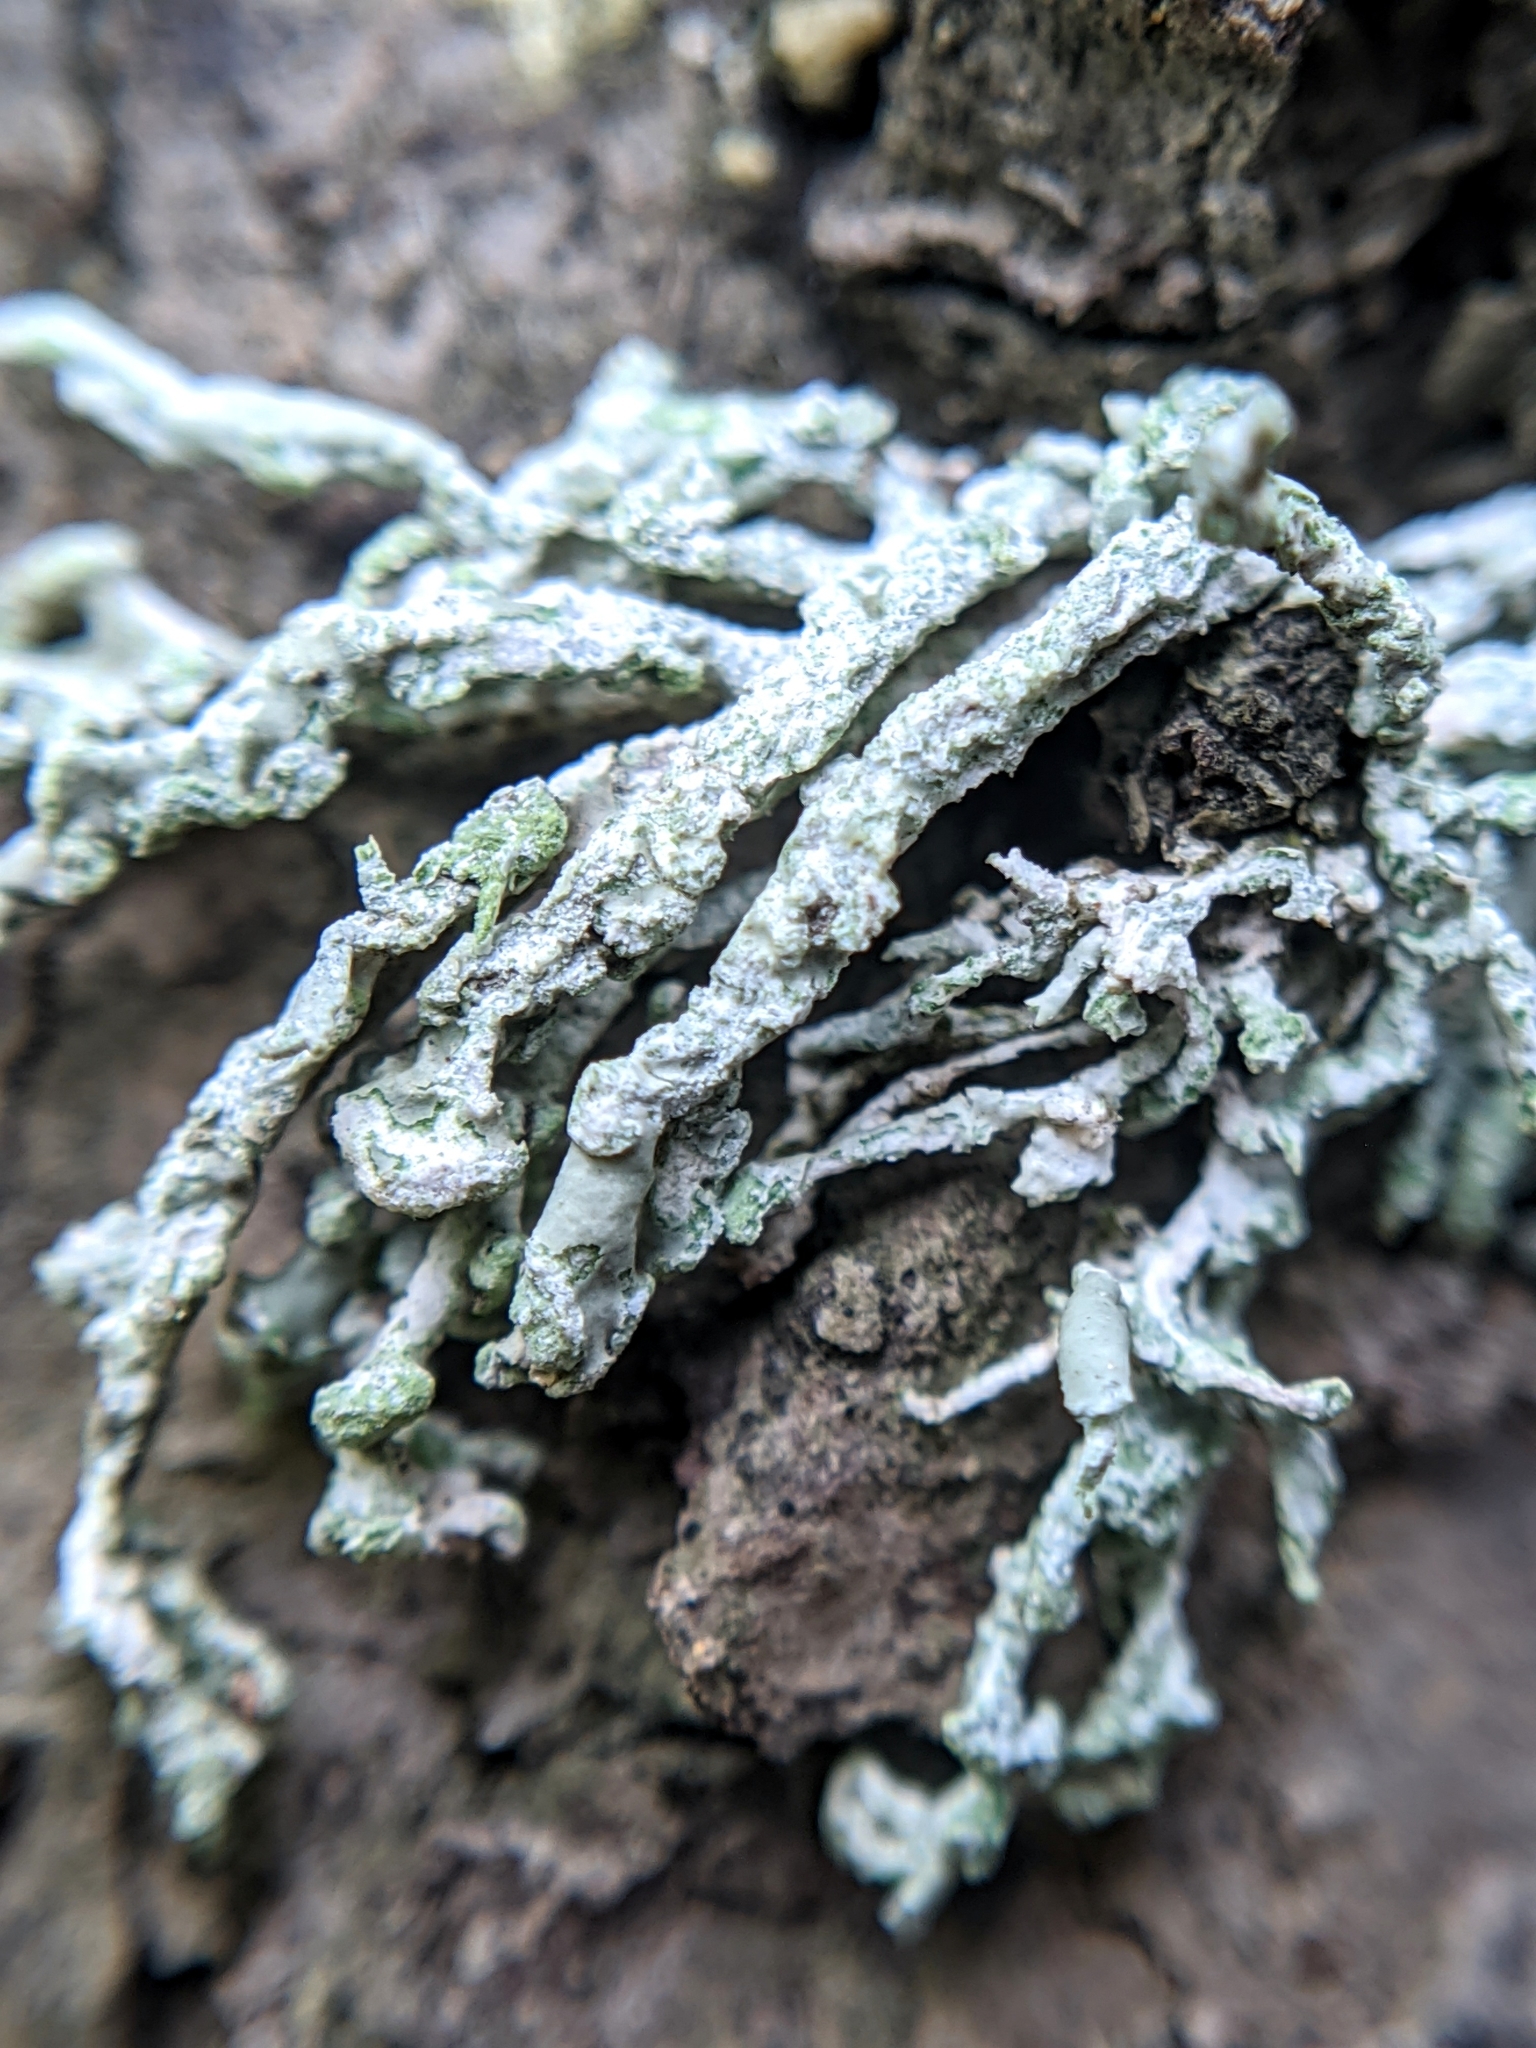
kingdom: Fungi
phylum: Ascomycota
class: Lecanoromycetes
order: Lecanorales
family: Ramalinaceae
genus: Niebla
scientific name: Niebla cephalota
